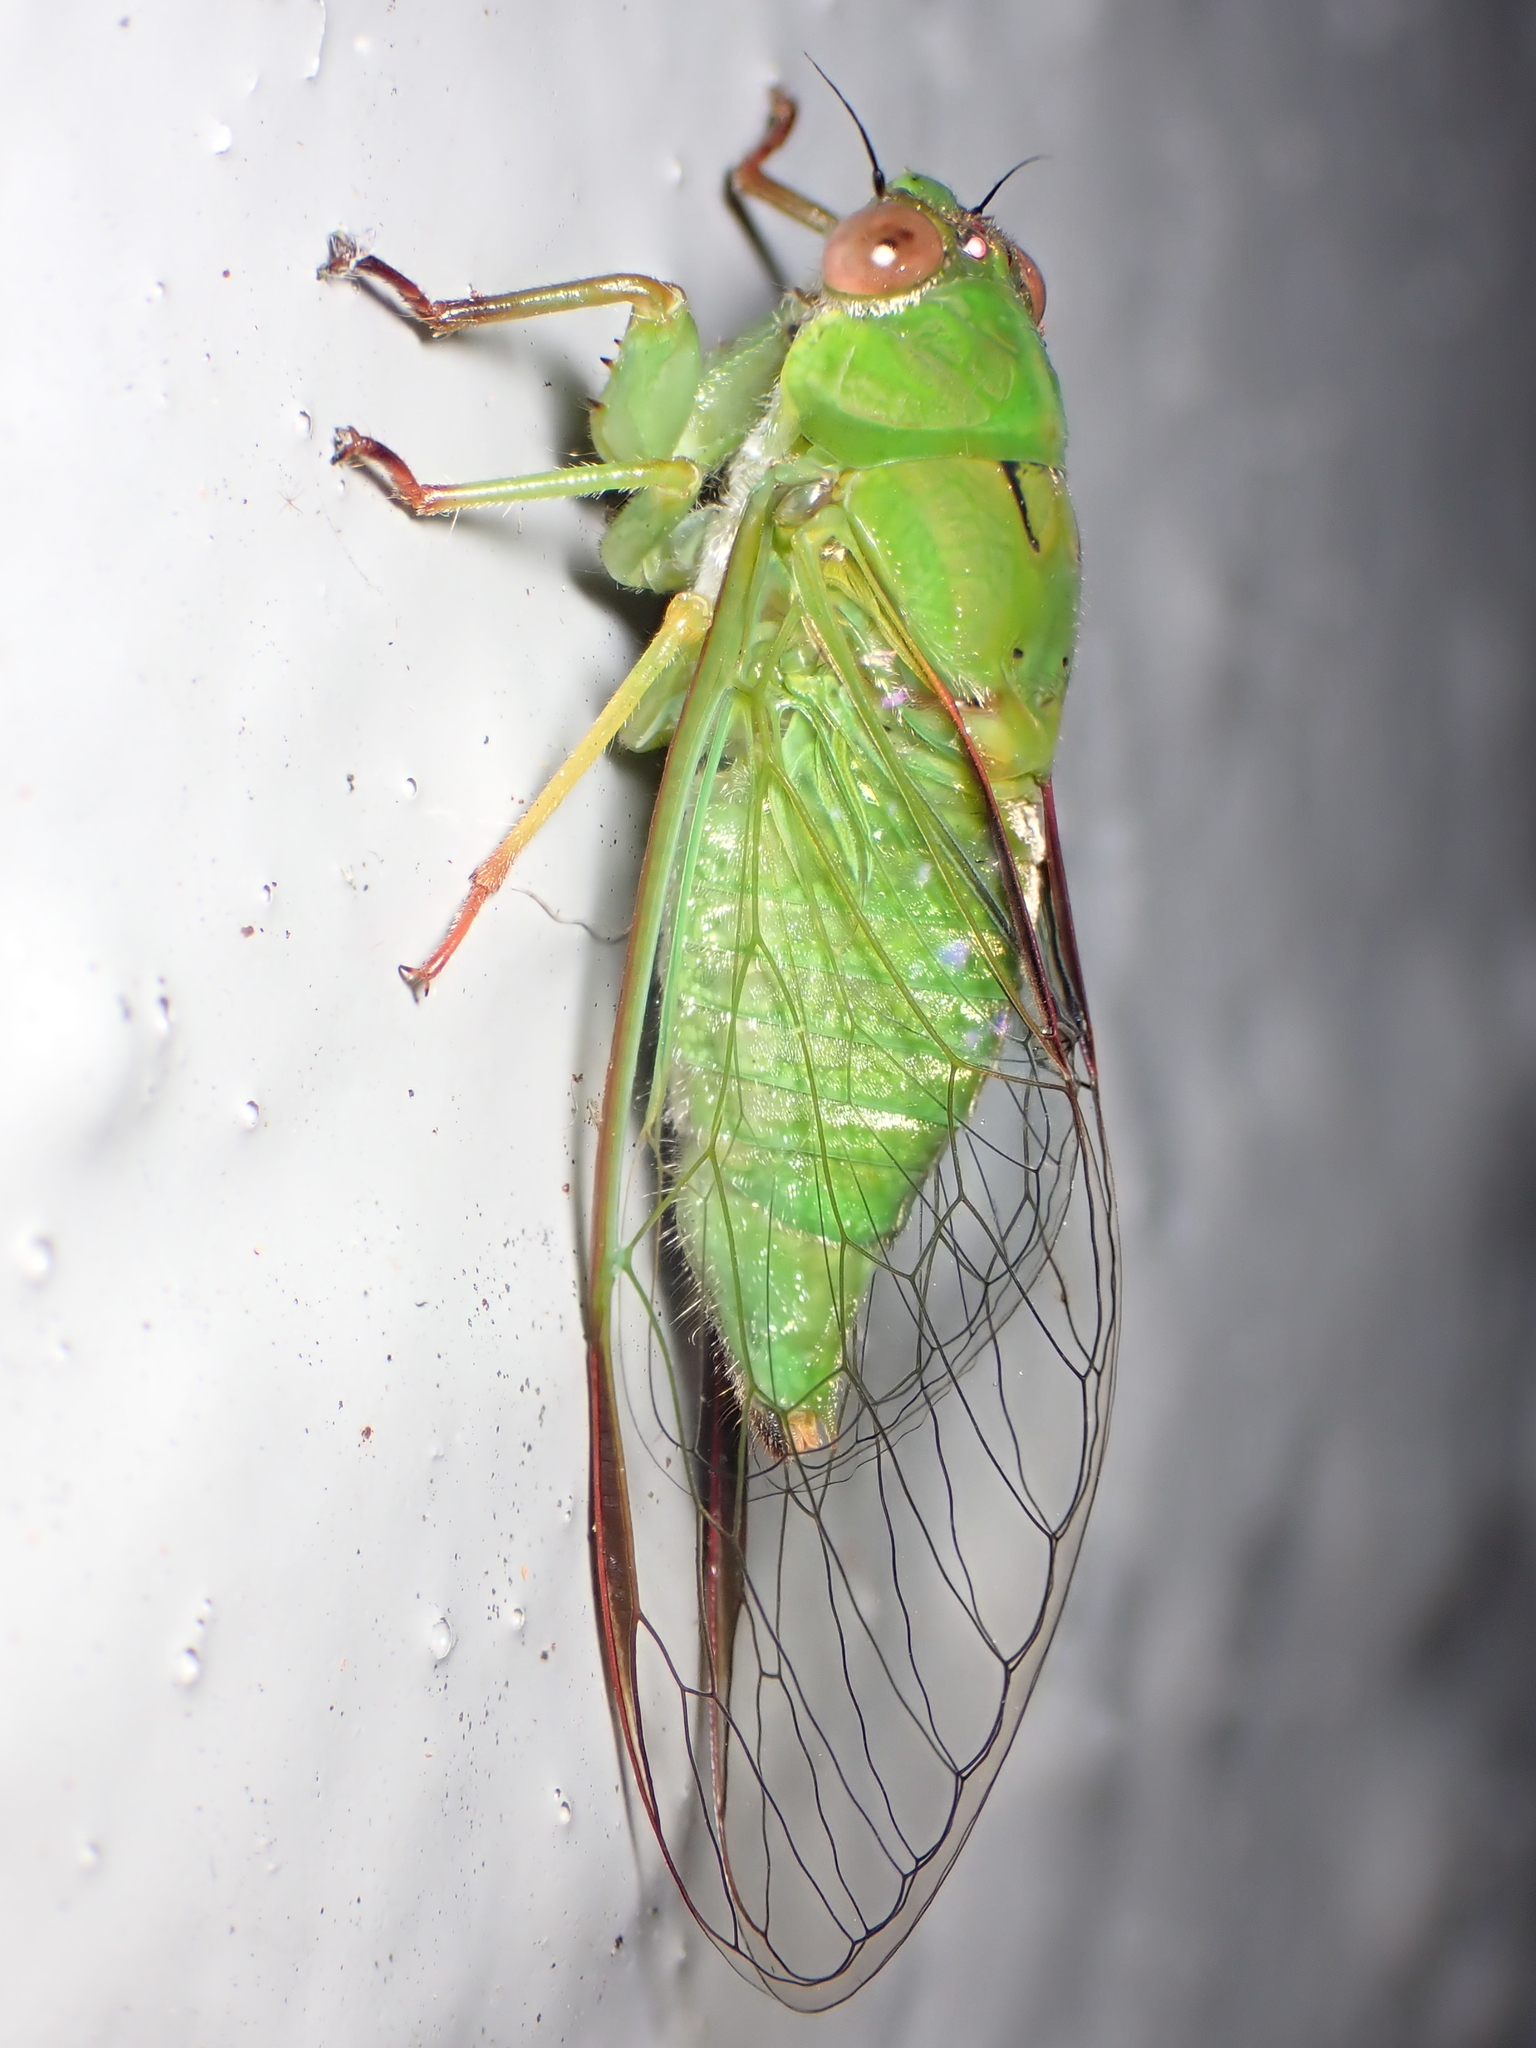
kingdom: Animalia
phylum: Arthropoda
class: Insecta
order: Hemiptera
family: Cicadidae
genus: Kikihia
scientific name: Kikihia ochrina
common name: April green cicada
